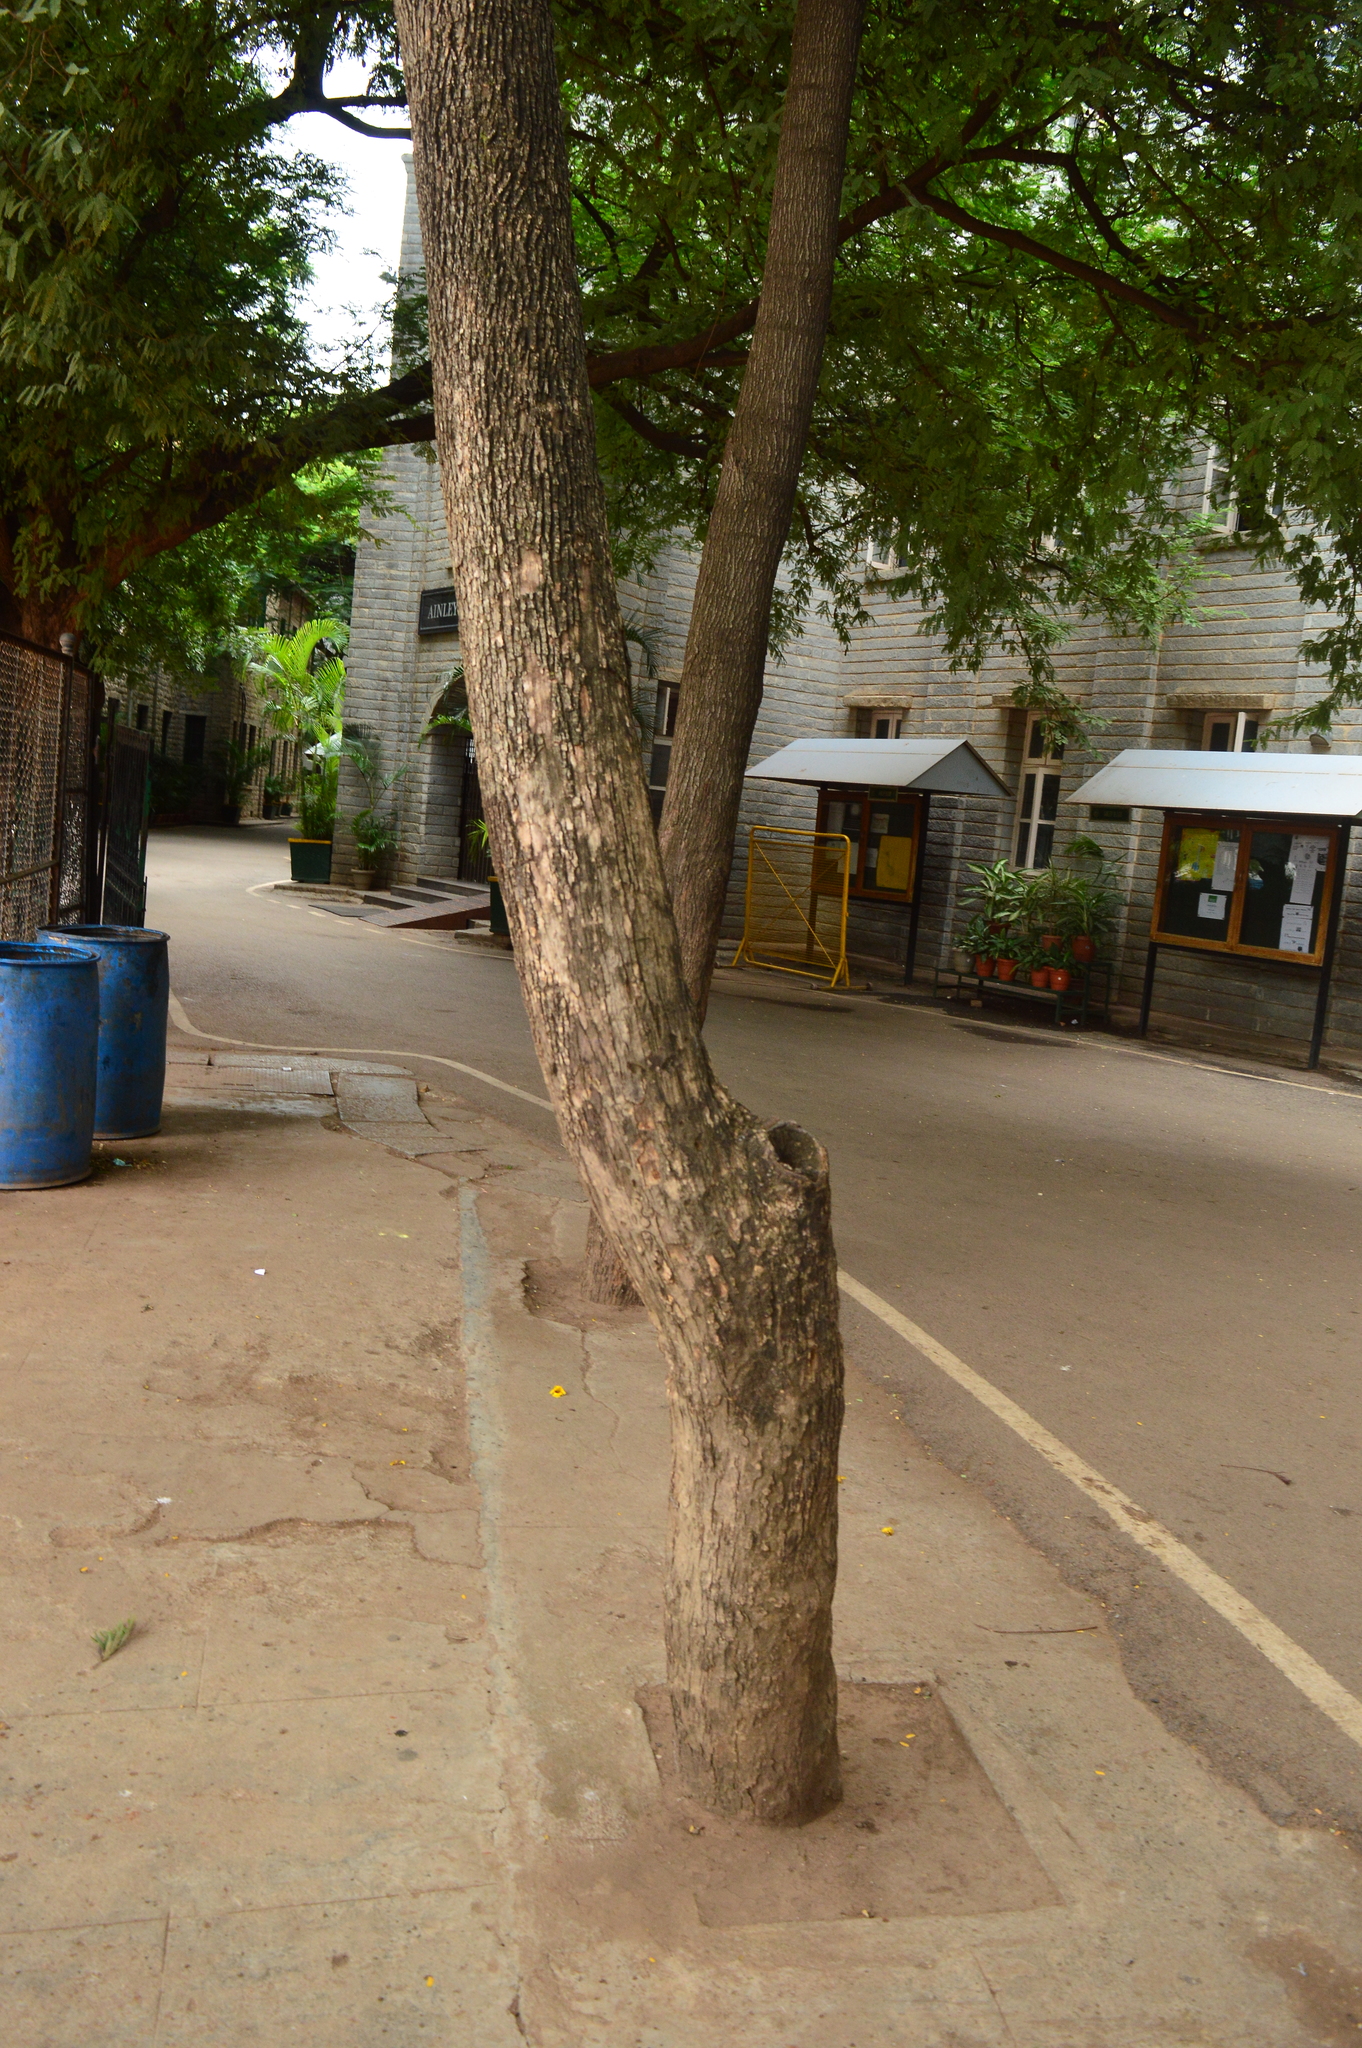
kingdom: Plantae
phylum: Tracheophyta
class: Magnoliopsida
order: Fabales
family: Fabaceae
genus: Tamarindus
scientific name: Tamarindus indica
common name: Tamarind
